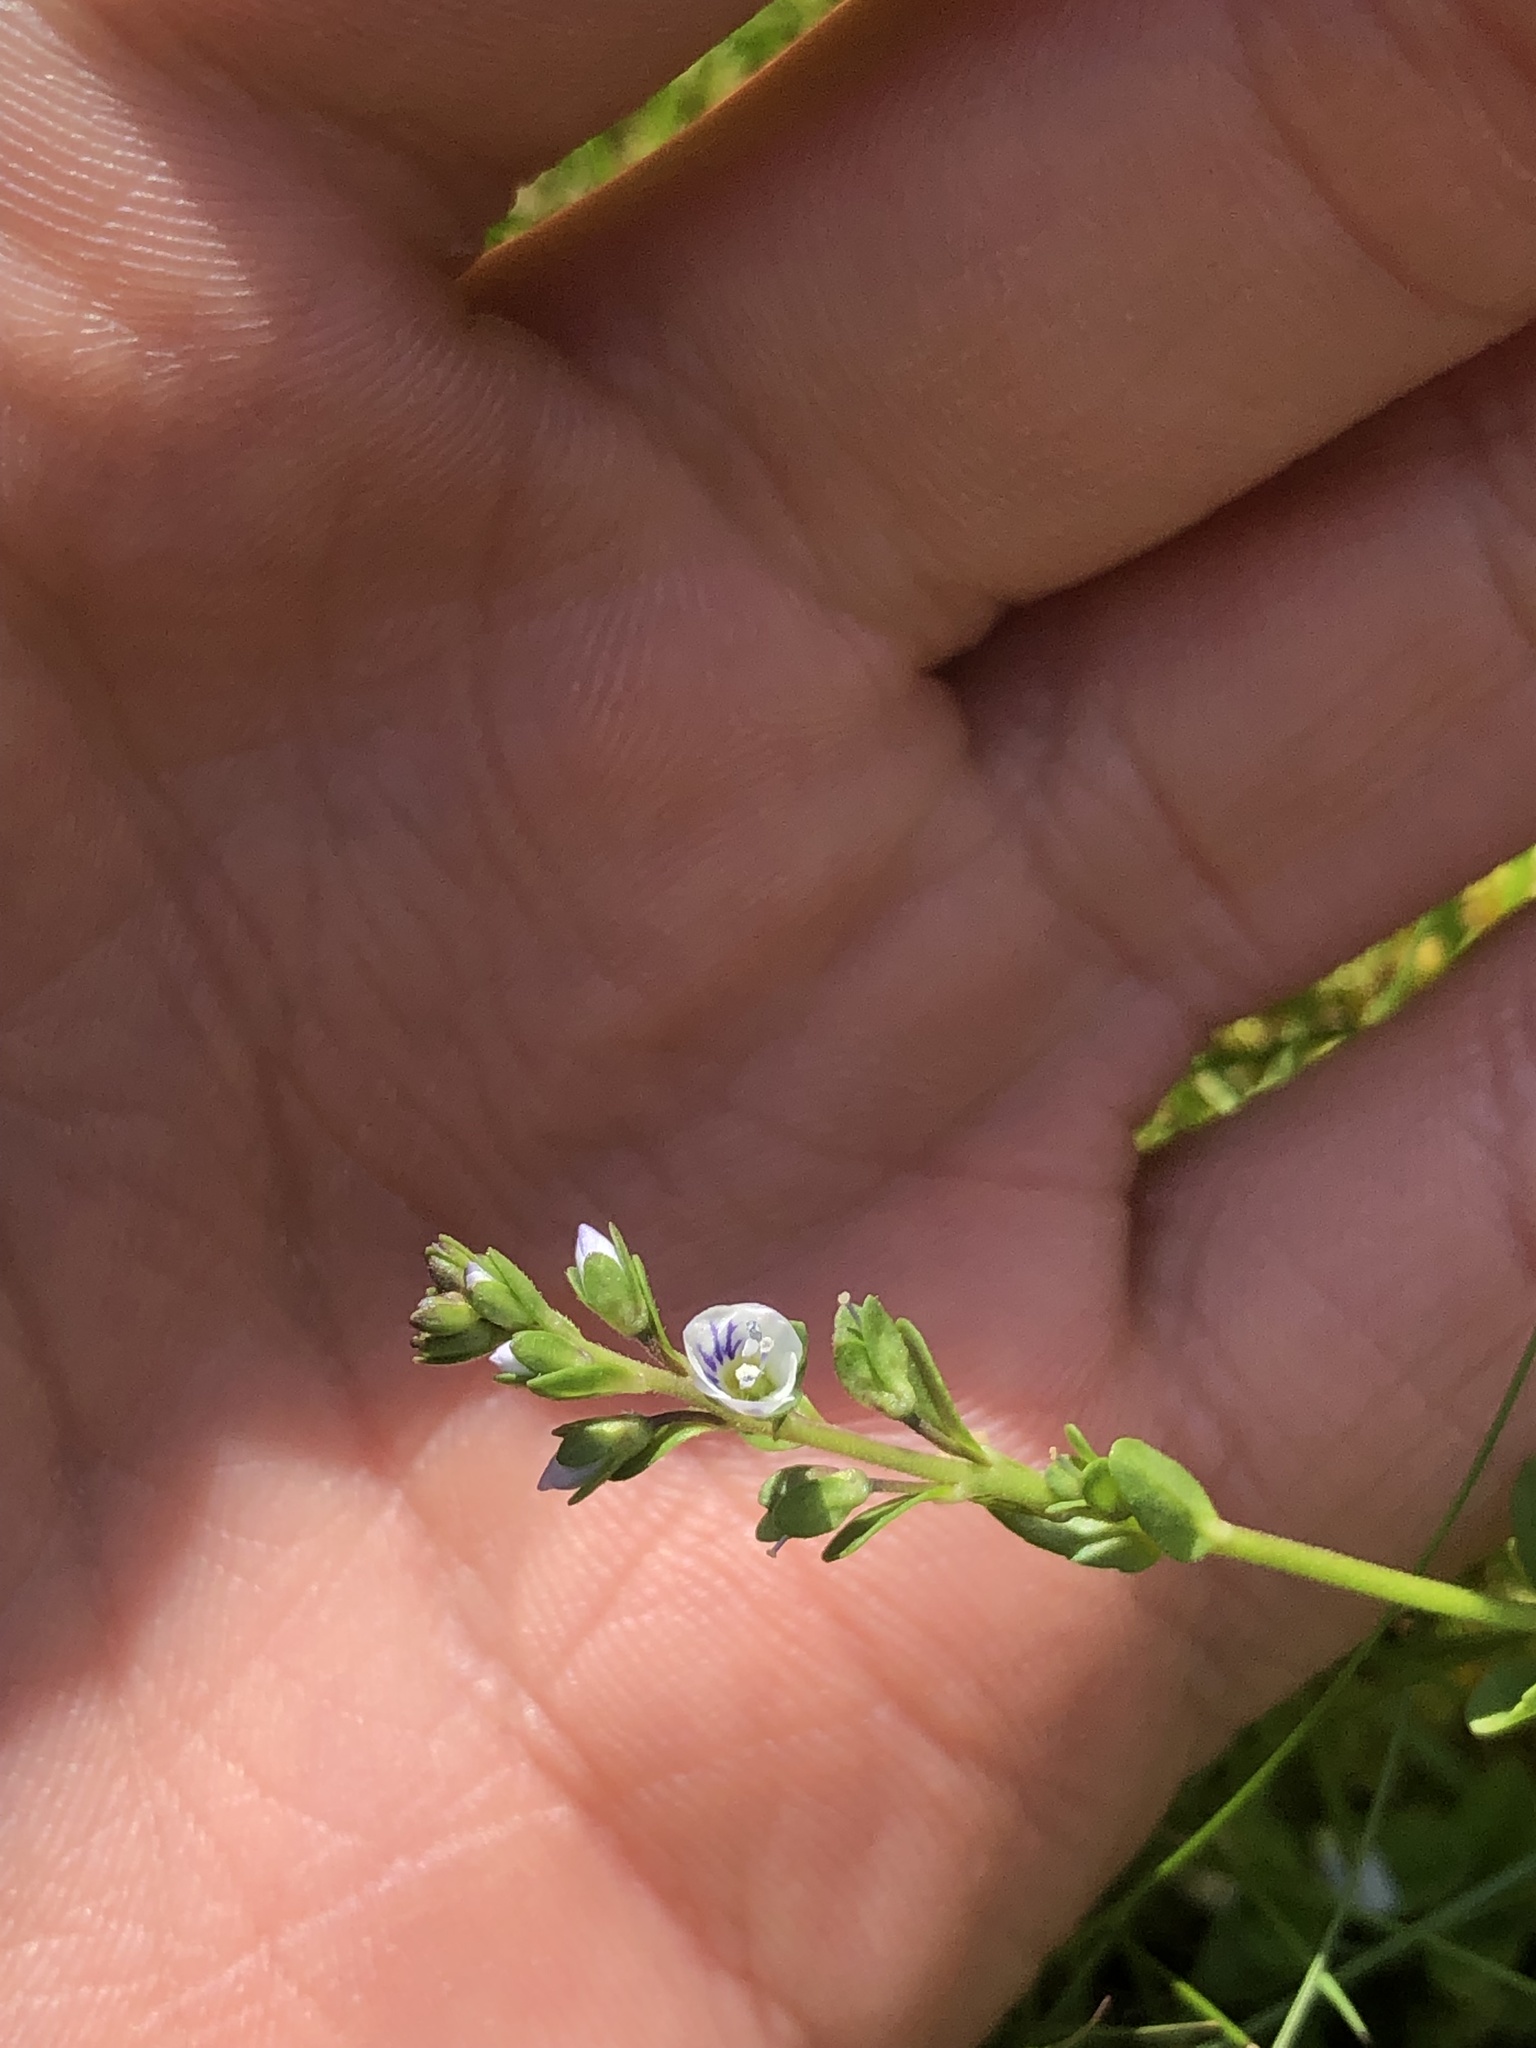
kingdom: Plantae
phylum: Tracheophyta
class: Magnoliopsida
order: Lamiales
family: Plantaginaceae
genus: Veronica
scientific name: Veronica serpyllifolia
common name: Thyme-leaved speedwell
